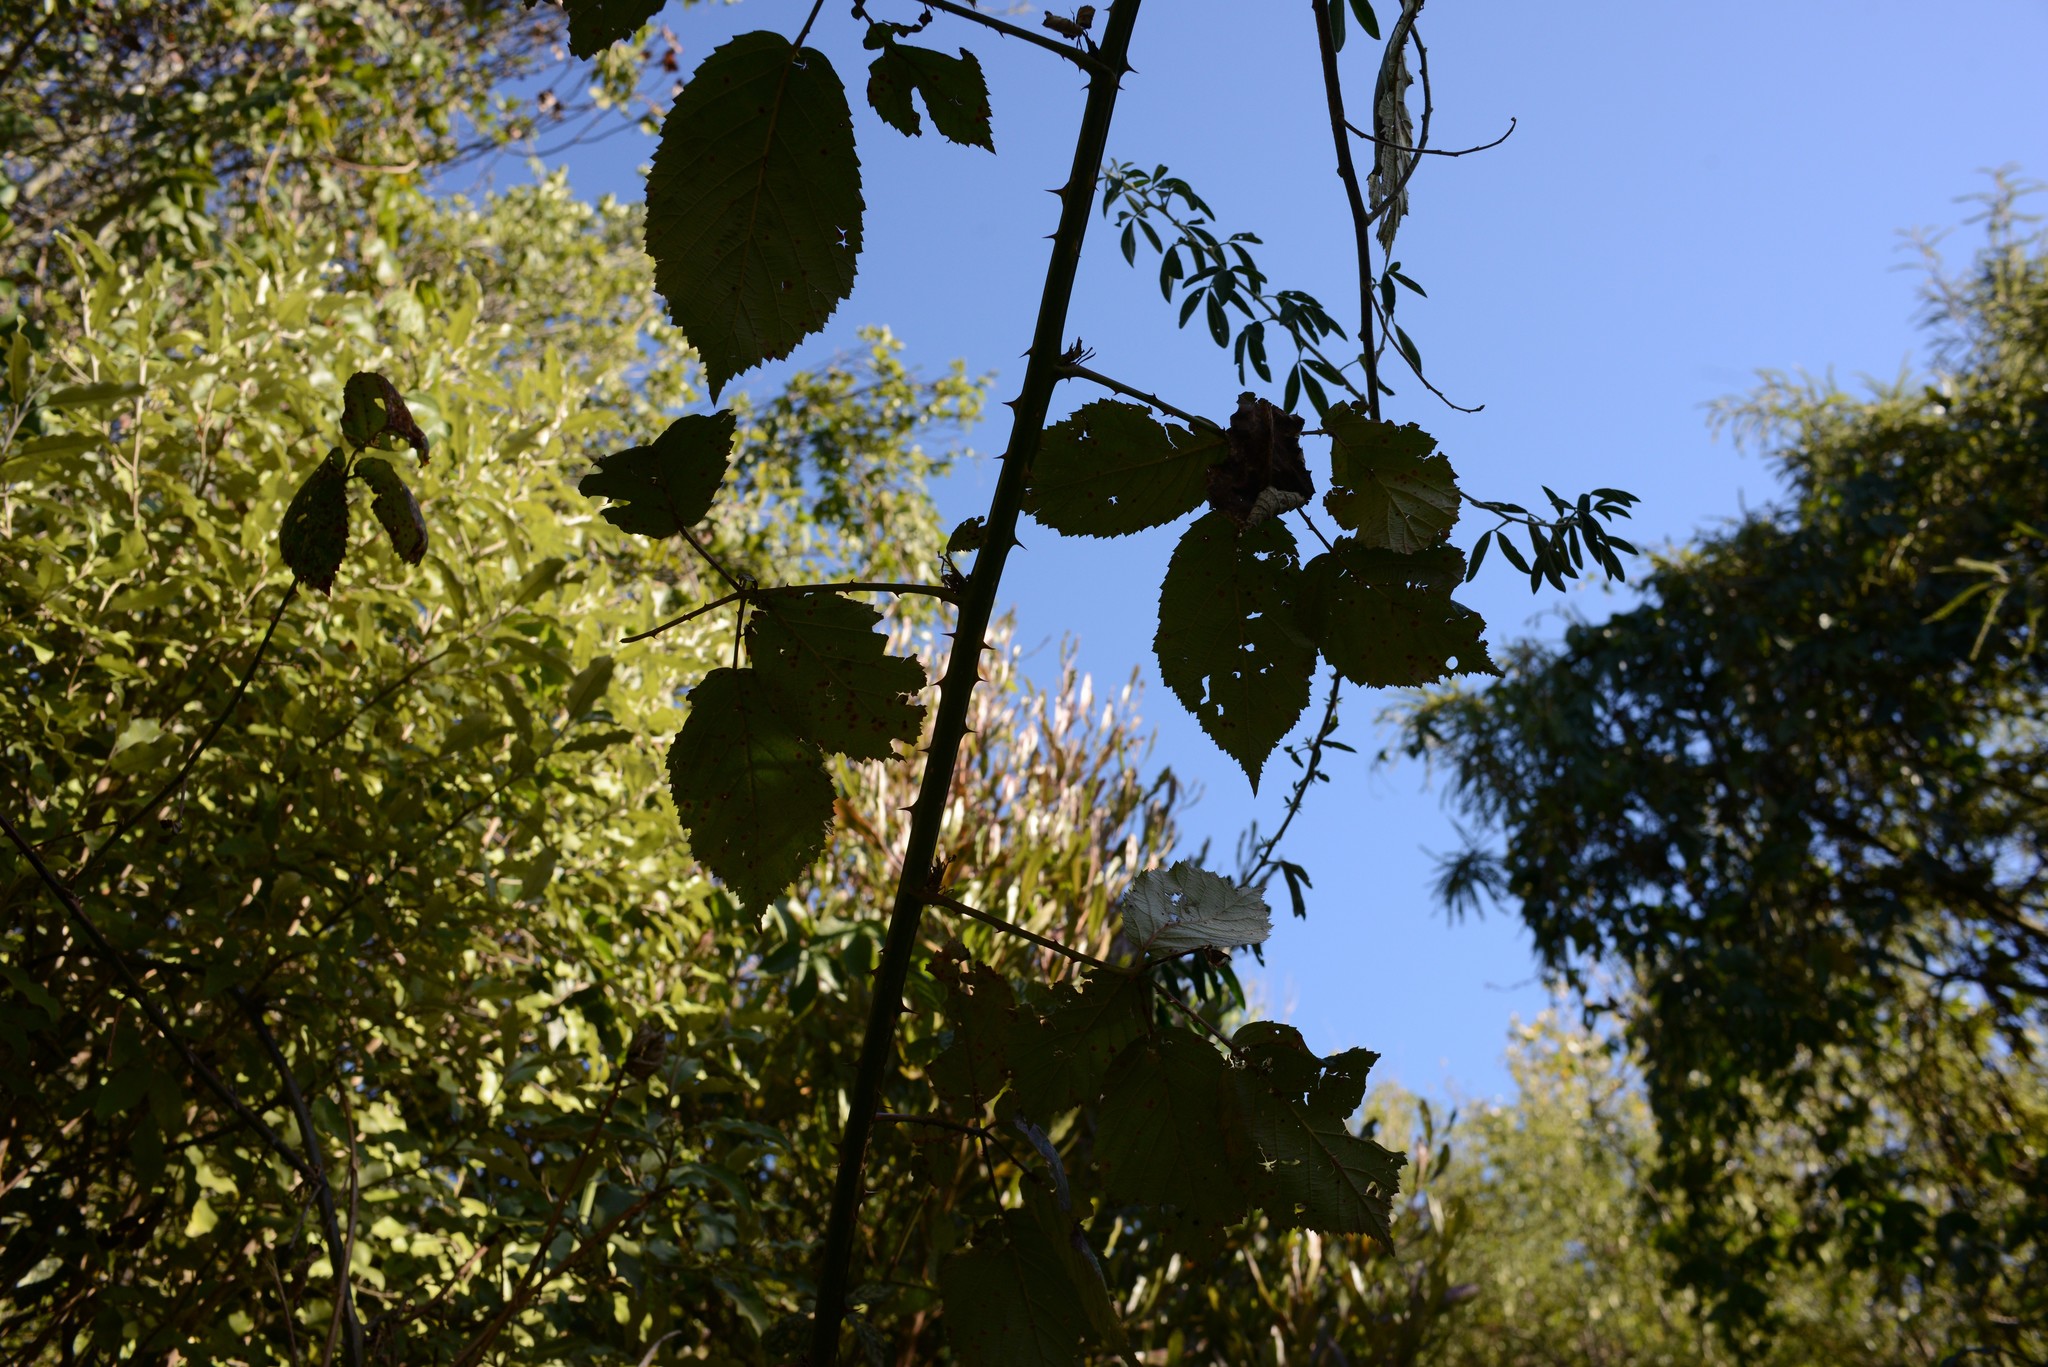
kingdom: Plantae
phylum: Tracheophyta
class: Magnoliopsida
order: Rosales
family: Rosaceae
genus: Rubus
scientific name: Rubus
